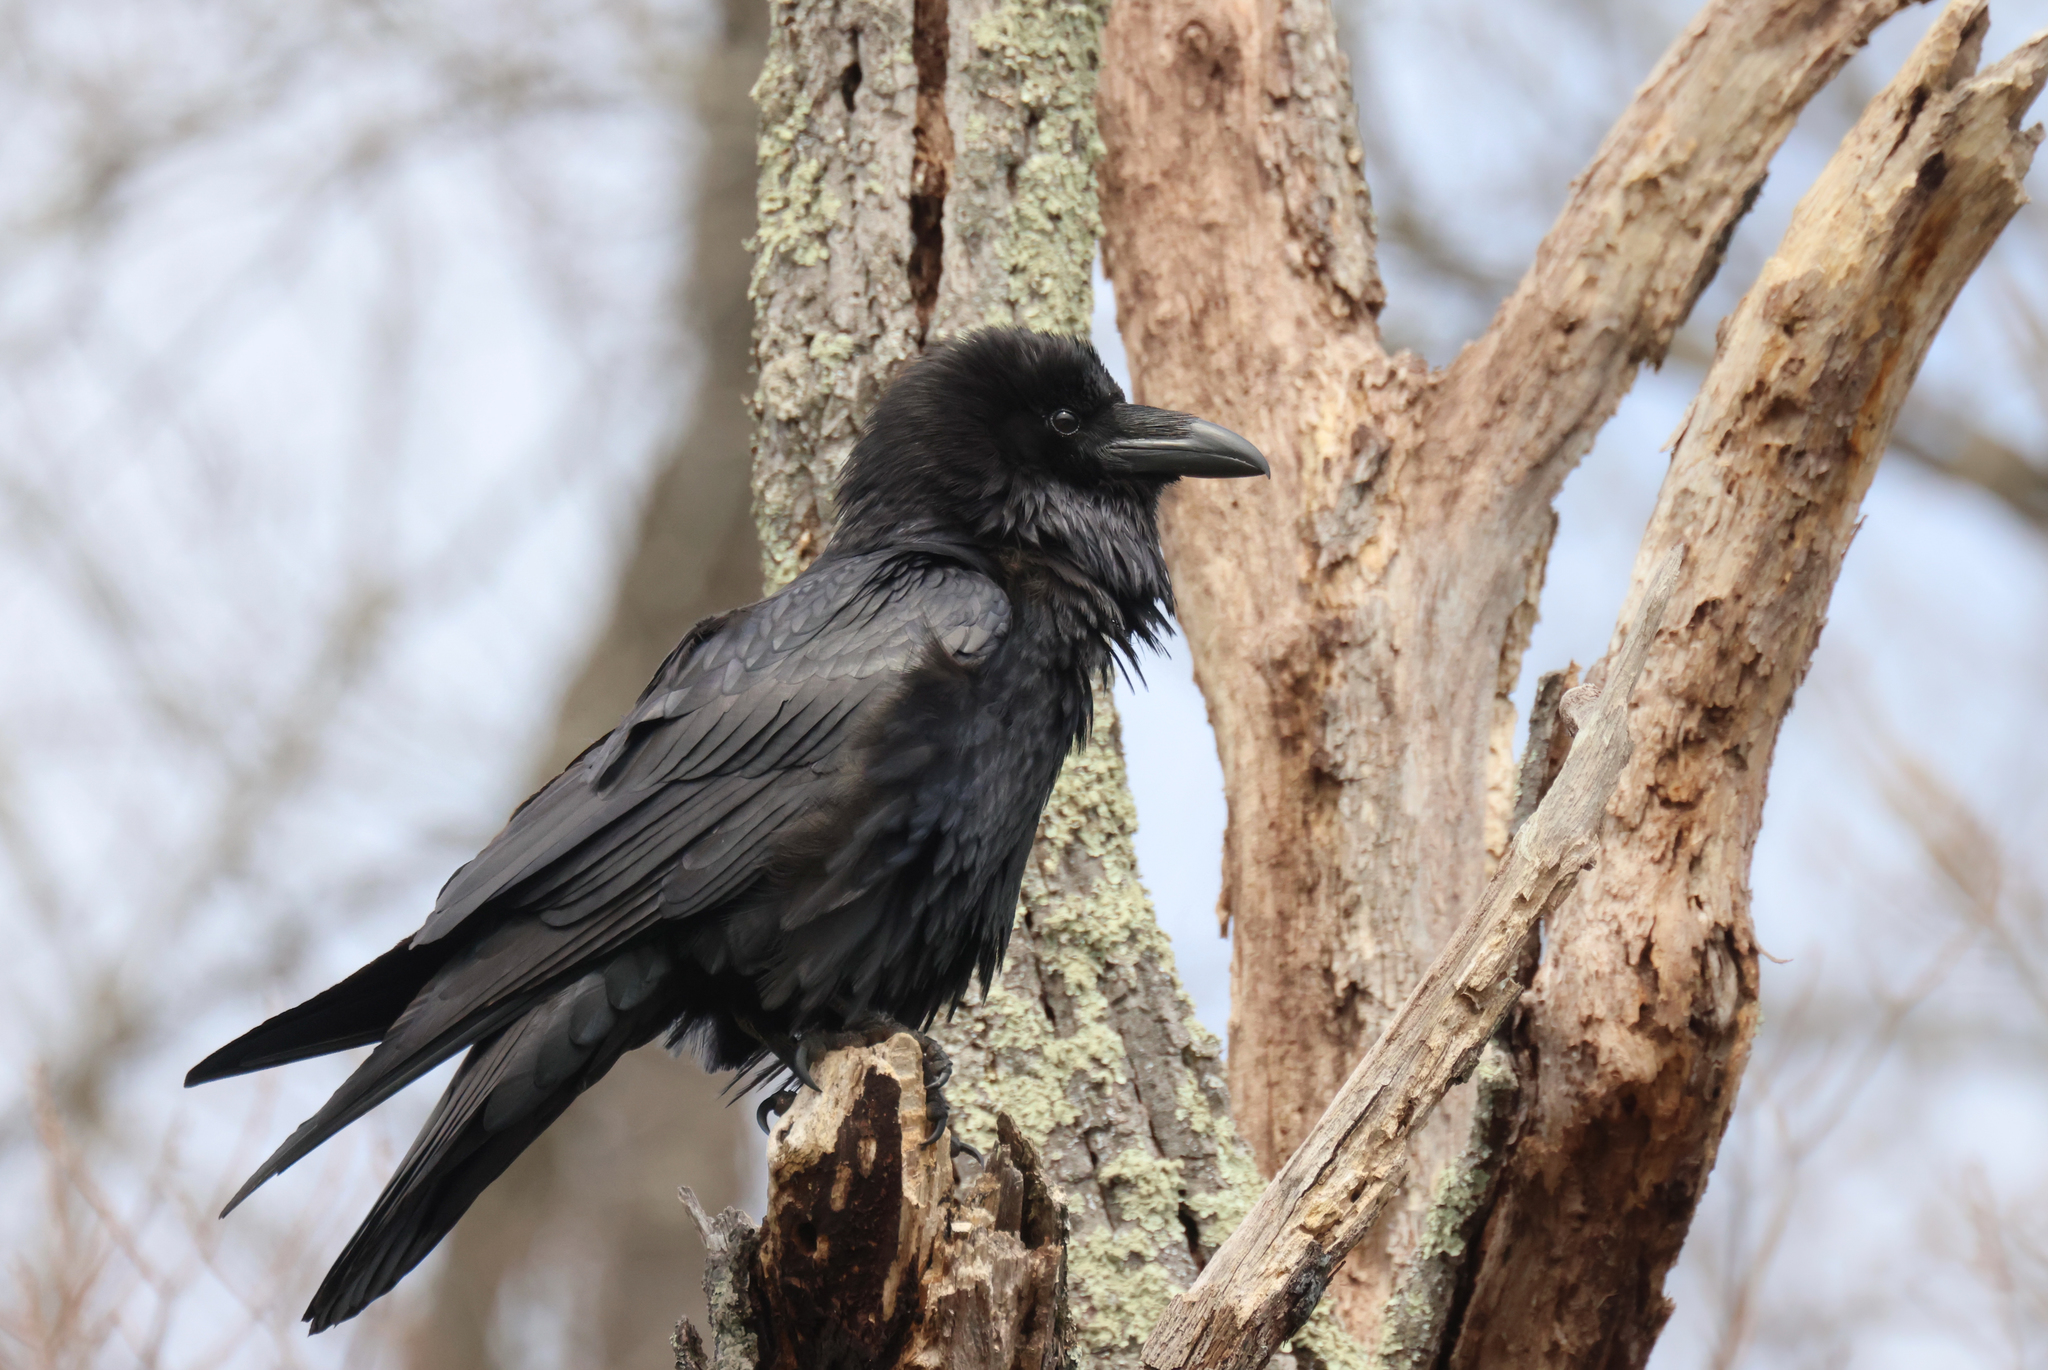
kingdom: Animalia
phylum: Chordata
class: Aves
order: Passeriformes
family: Corvidae
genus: Corvus
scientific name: Corvus corax
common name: Common raven
